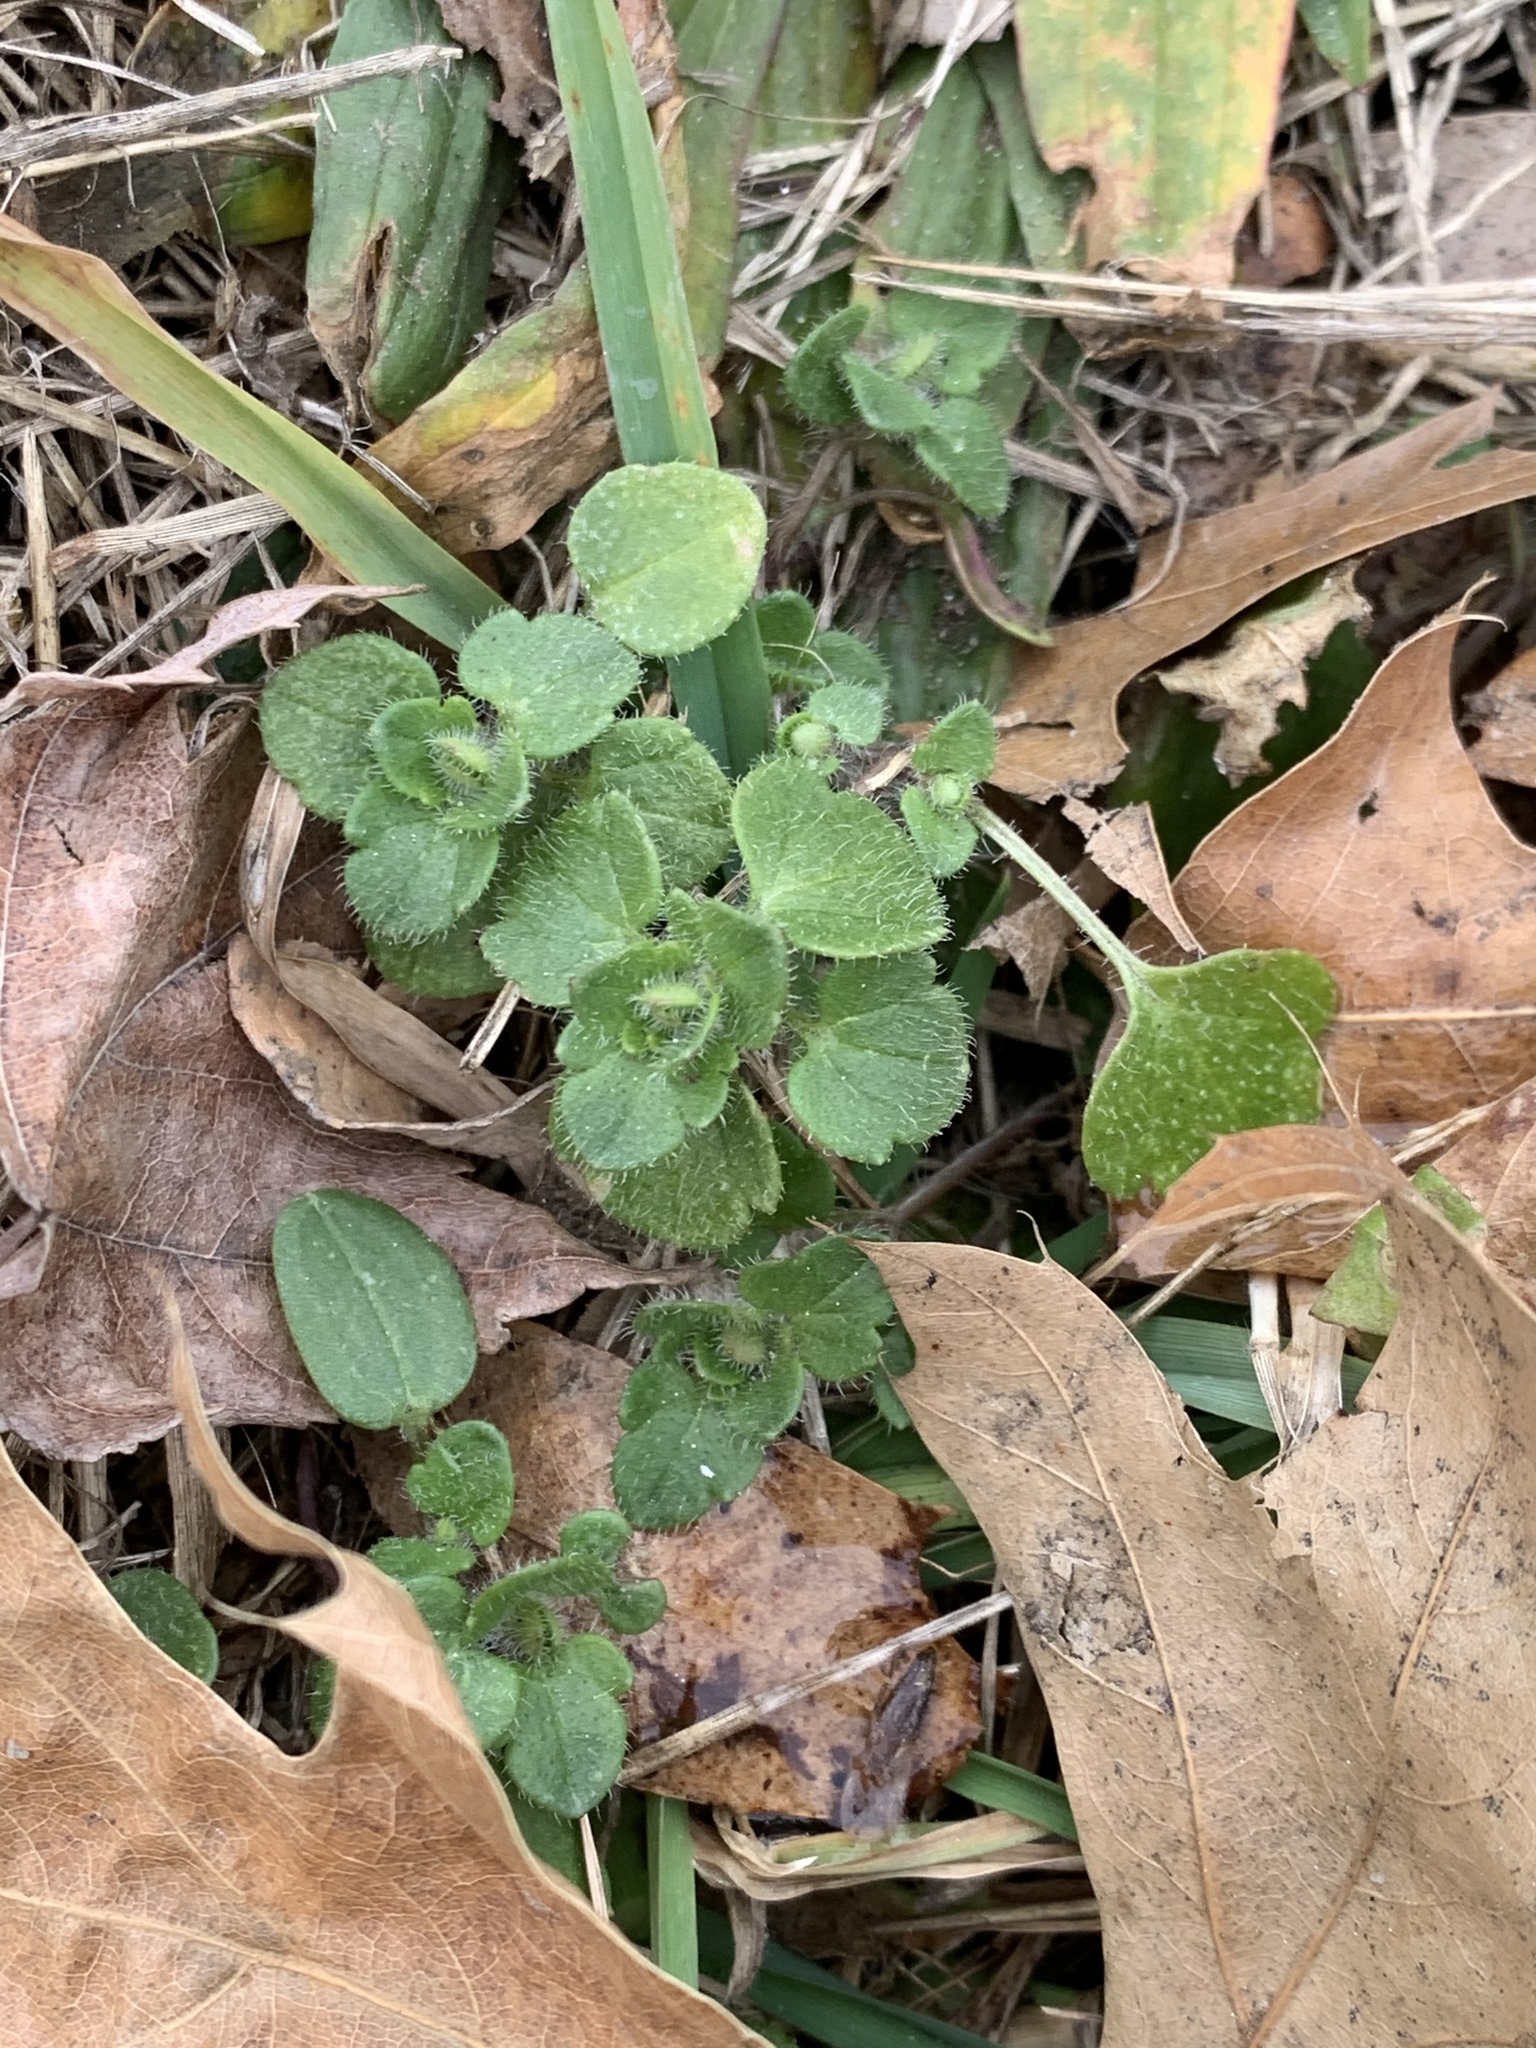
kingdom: Plantae
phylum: Tracheophyta
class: Magnoliopsida
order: Lamiales
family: Plantaginaceae
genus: Veronica
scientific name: Veronica hederifolia
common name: Ivy-leaved speedwell
